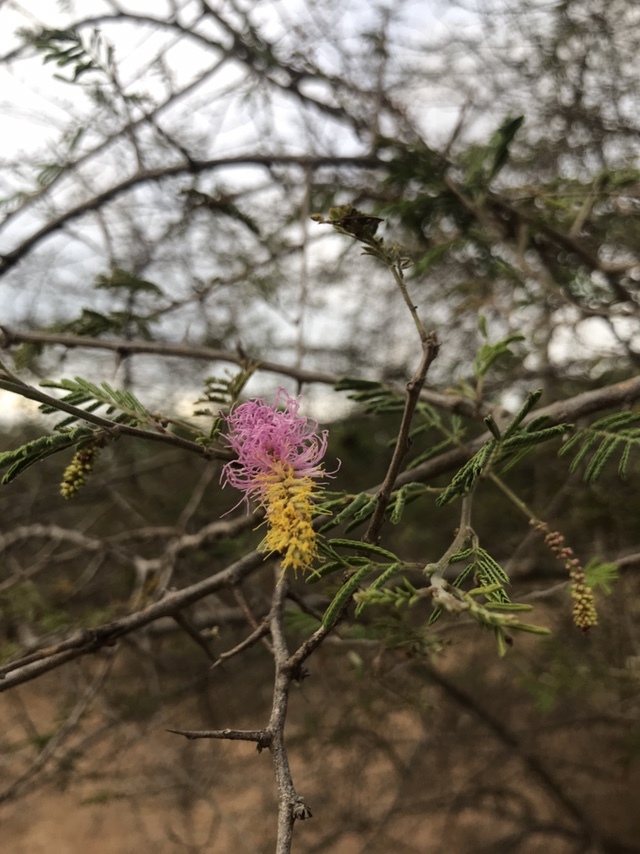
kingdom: Plantae
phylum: Tracheophyta
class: Magnoliopsida
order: Fabales
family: Fabaceae
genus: Dichrostachys
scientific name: Dichrostachys cinerea
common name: Sicklebush
